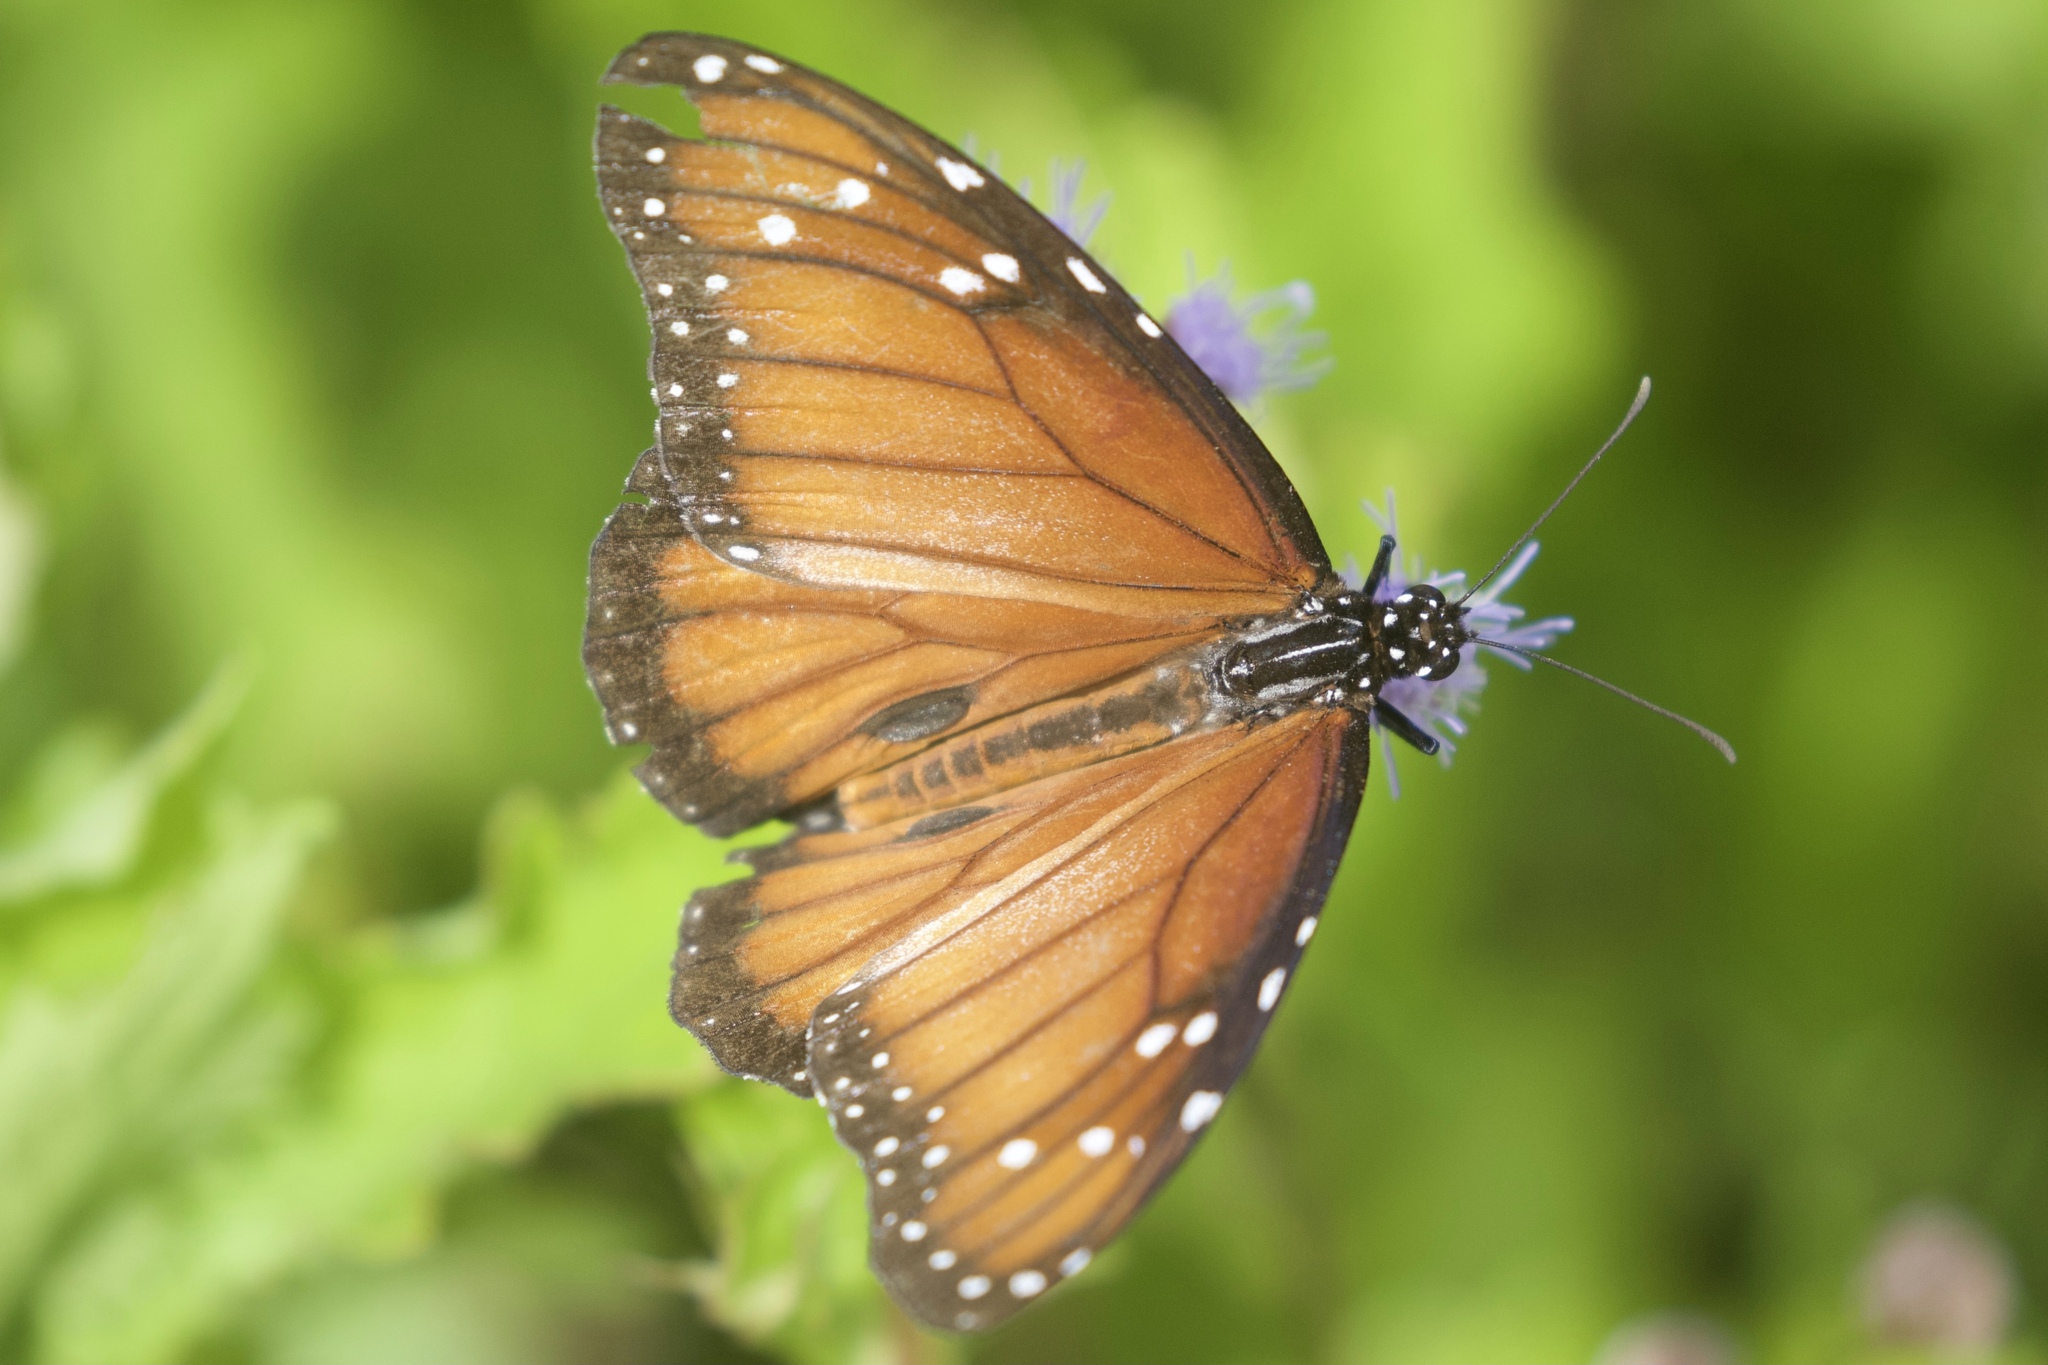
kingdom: Animalia
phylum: Arthropoda
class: Insecta
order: Lepidoptera
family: Nymphalidae
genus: Danaus
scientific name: Danaus eresimus
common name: Soldier
